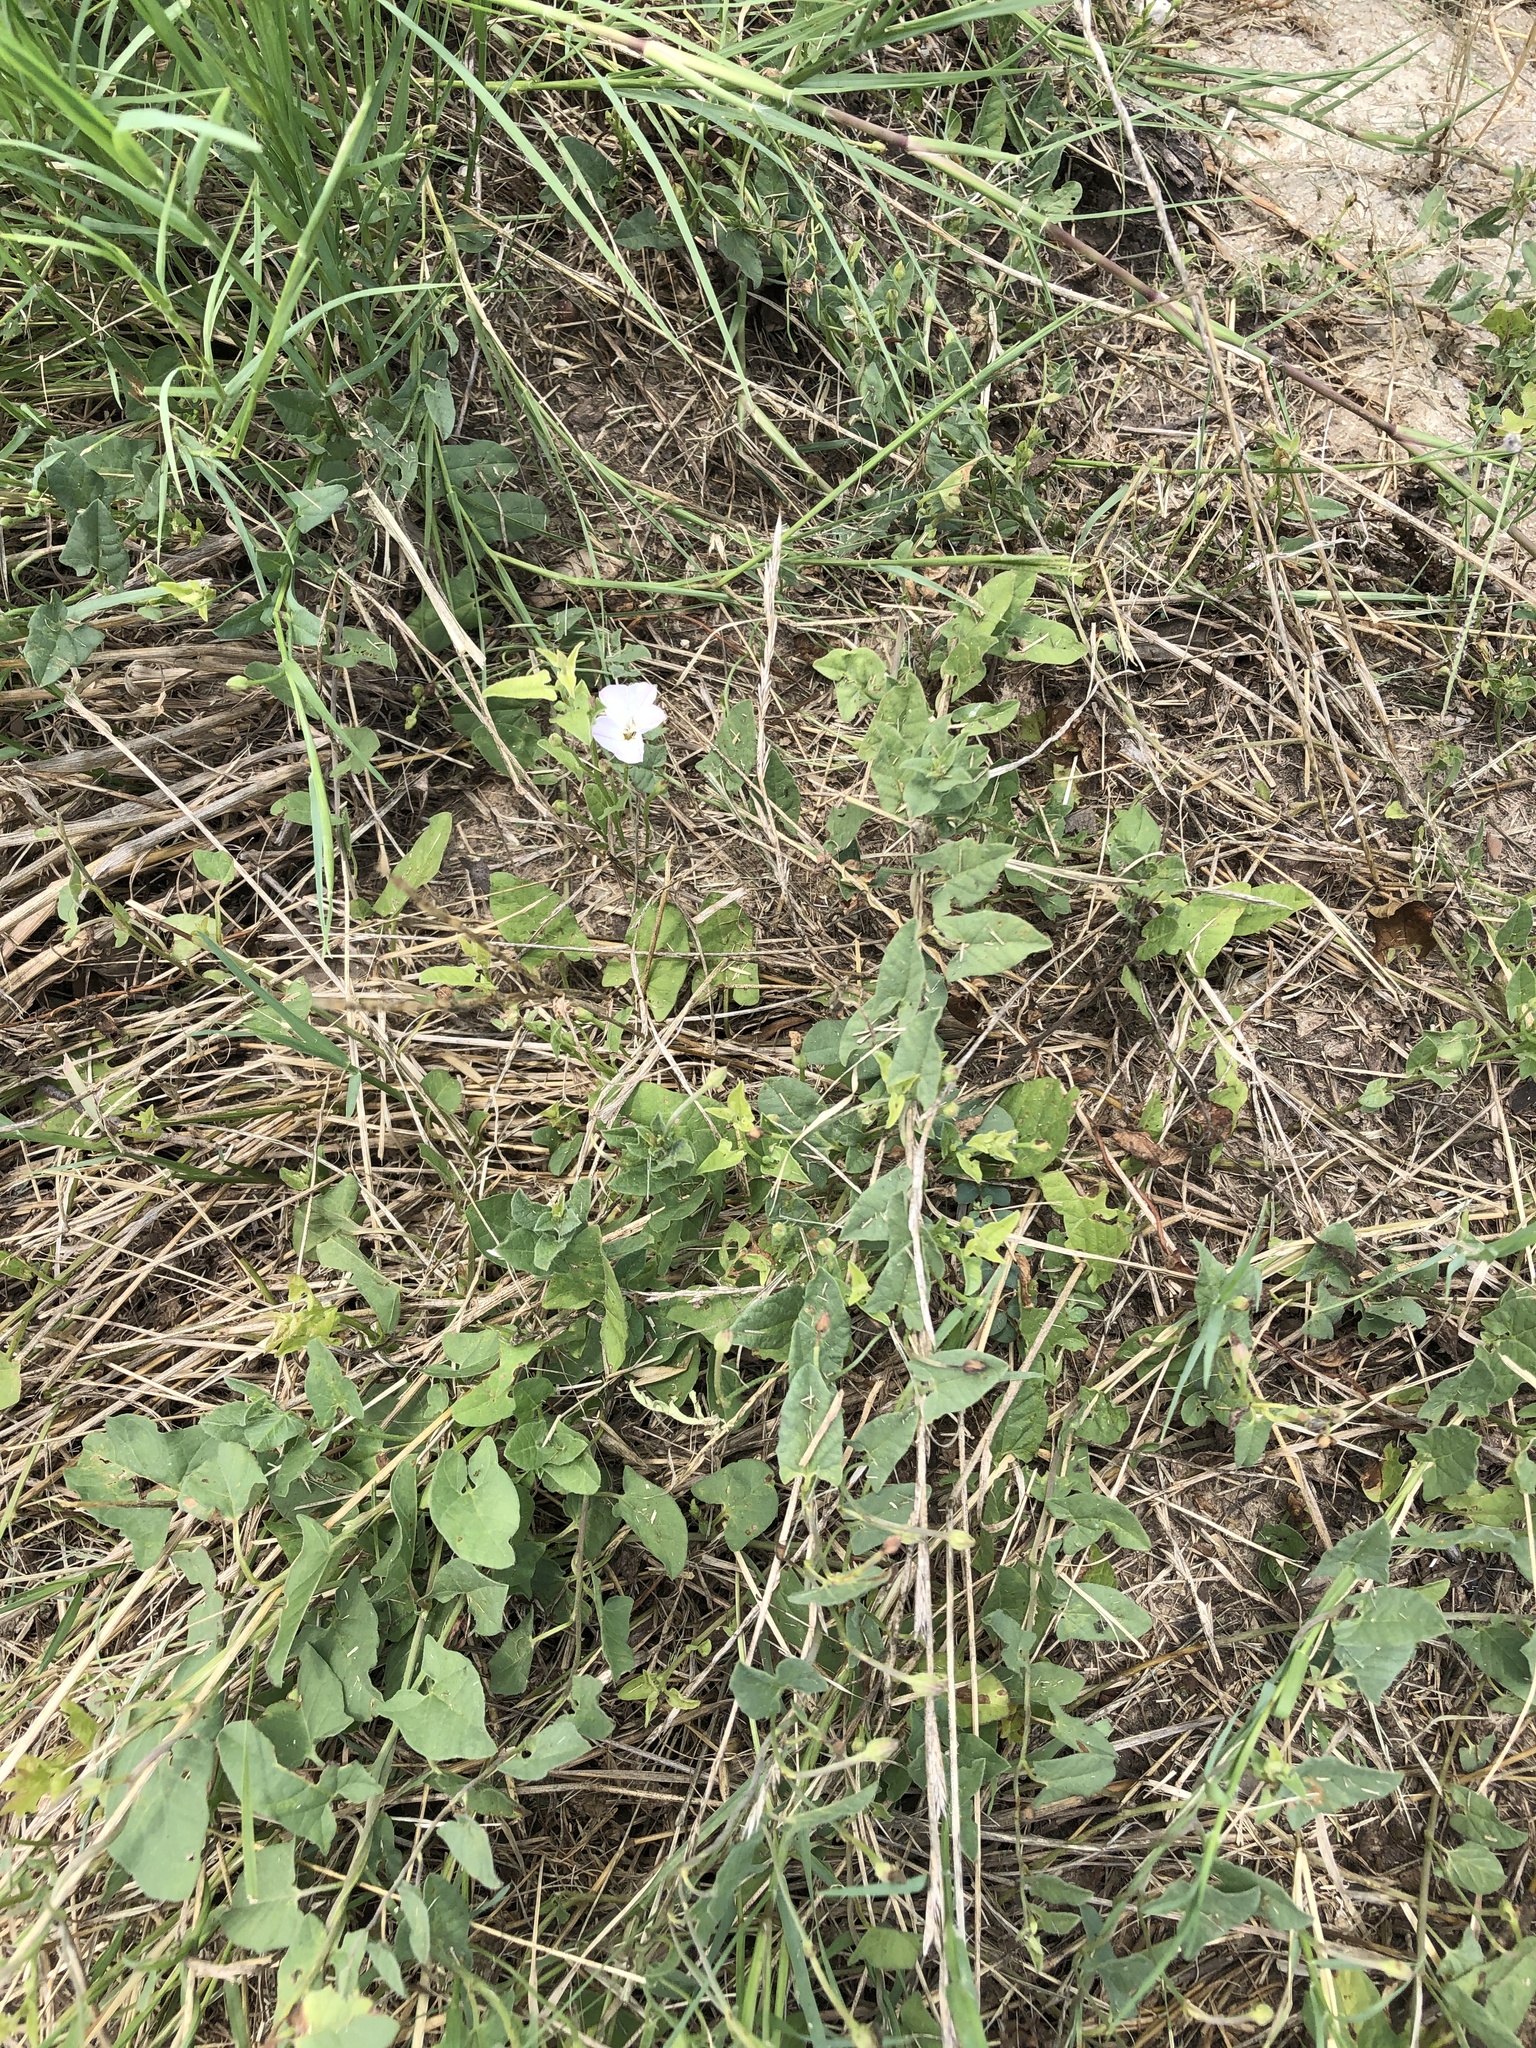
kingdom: Plantae
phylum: Tracheophyta
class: Magnoliopsida
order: Solanales
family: Convolvulaceae
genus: Convolvulus
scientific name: Convolvulus arvensis
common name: Field bindweed
